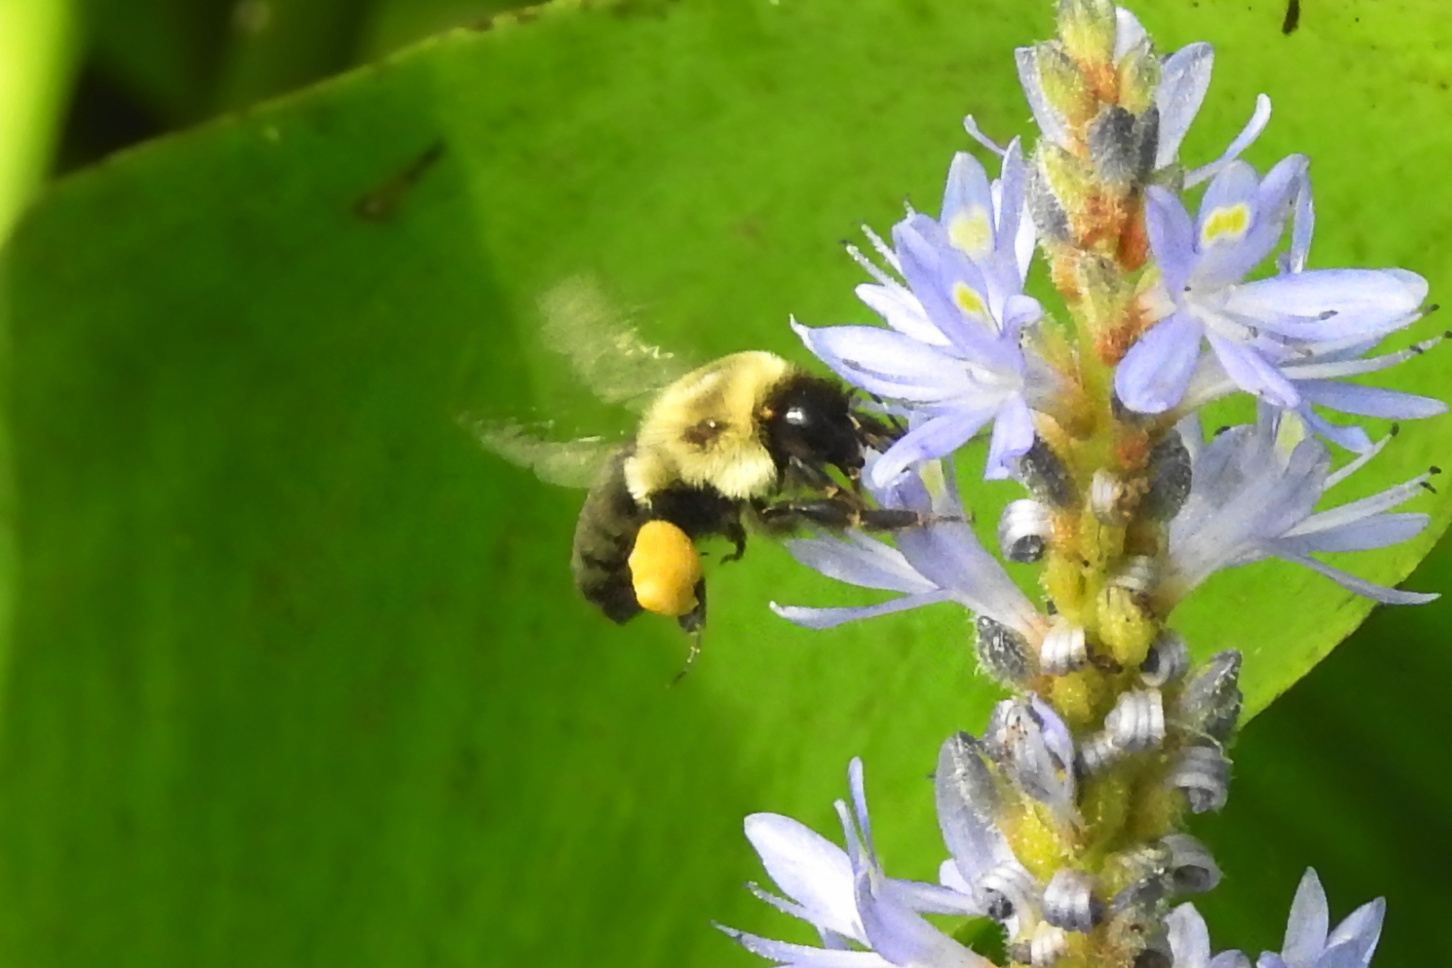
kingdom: Animalia
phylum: Arthropoda
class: Insecta
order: Hymenoptera
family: Apidae
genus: Bombus
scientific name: Bombus impatiens
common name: Common eastern bumble bee
